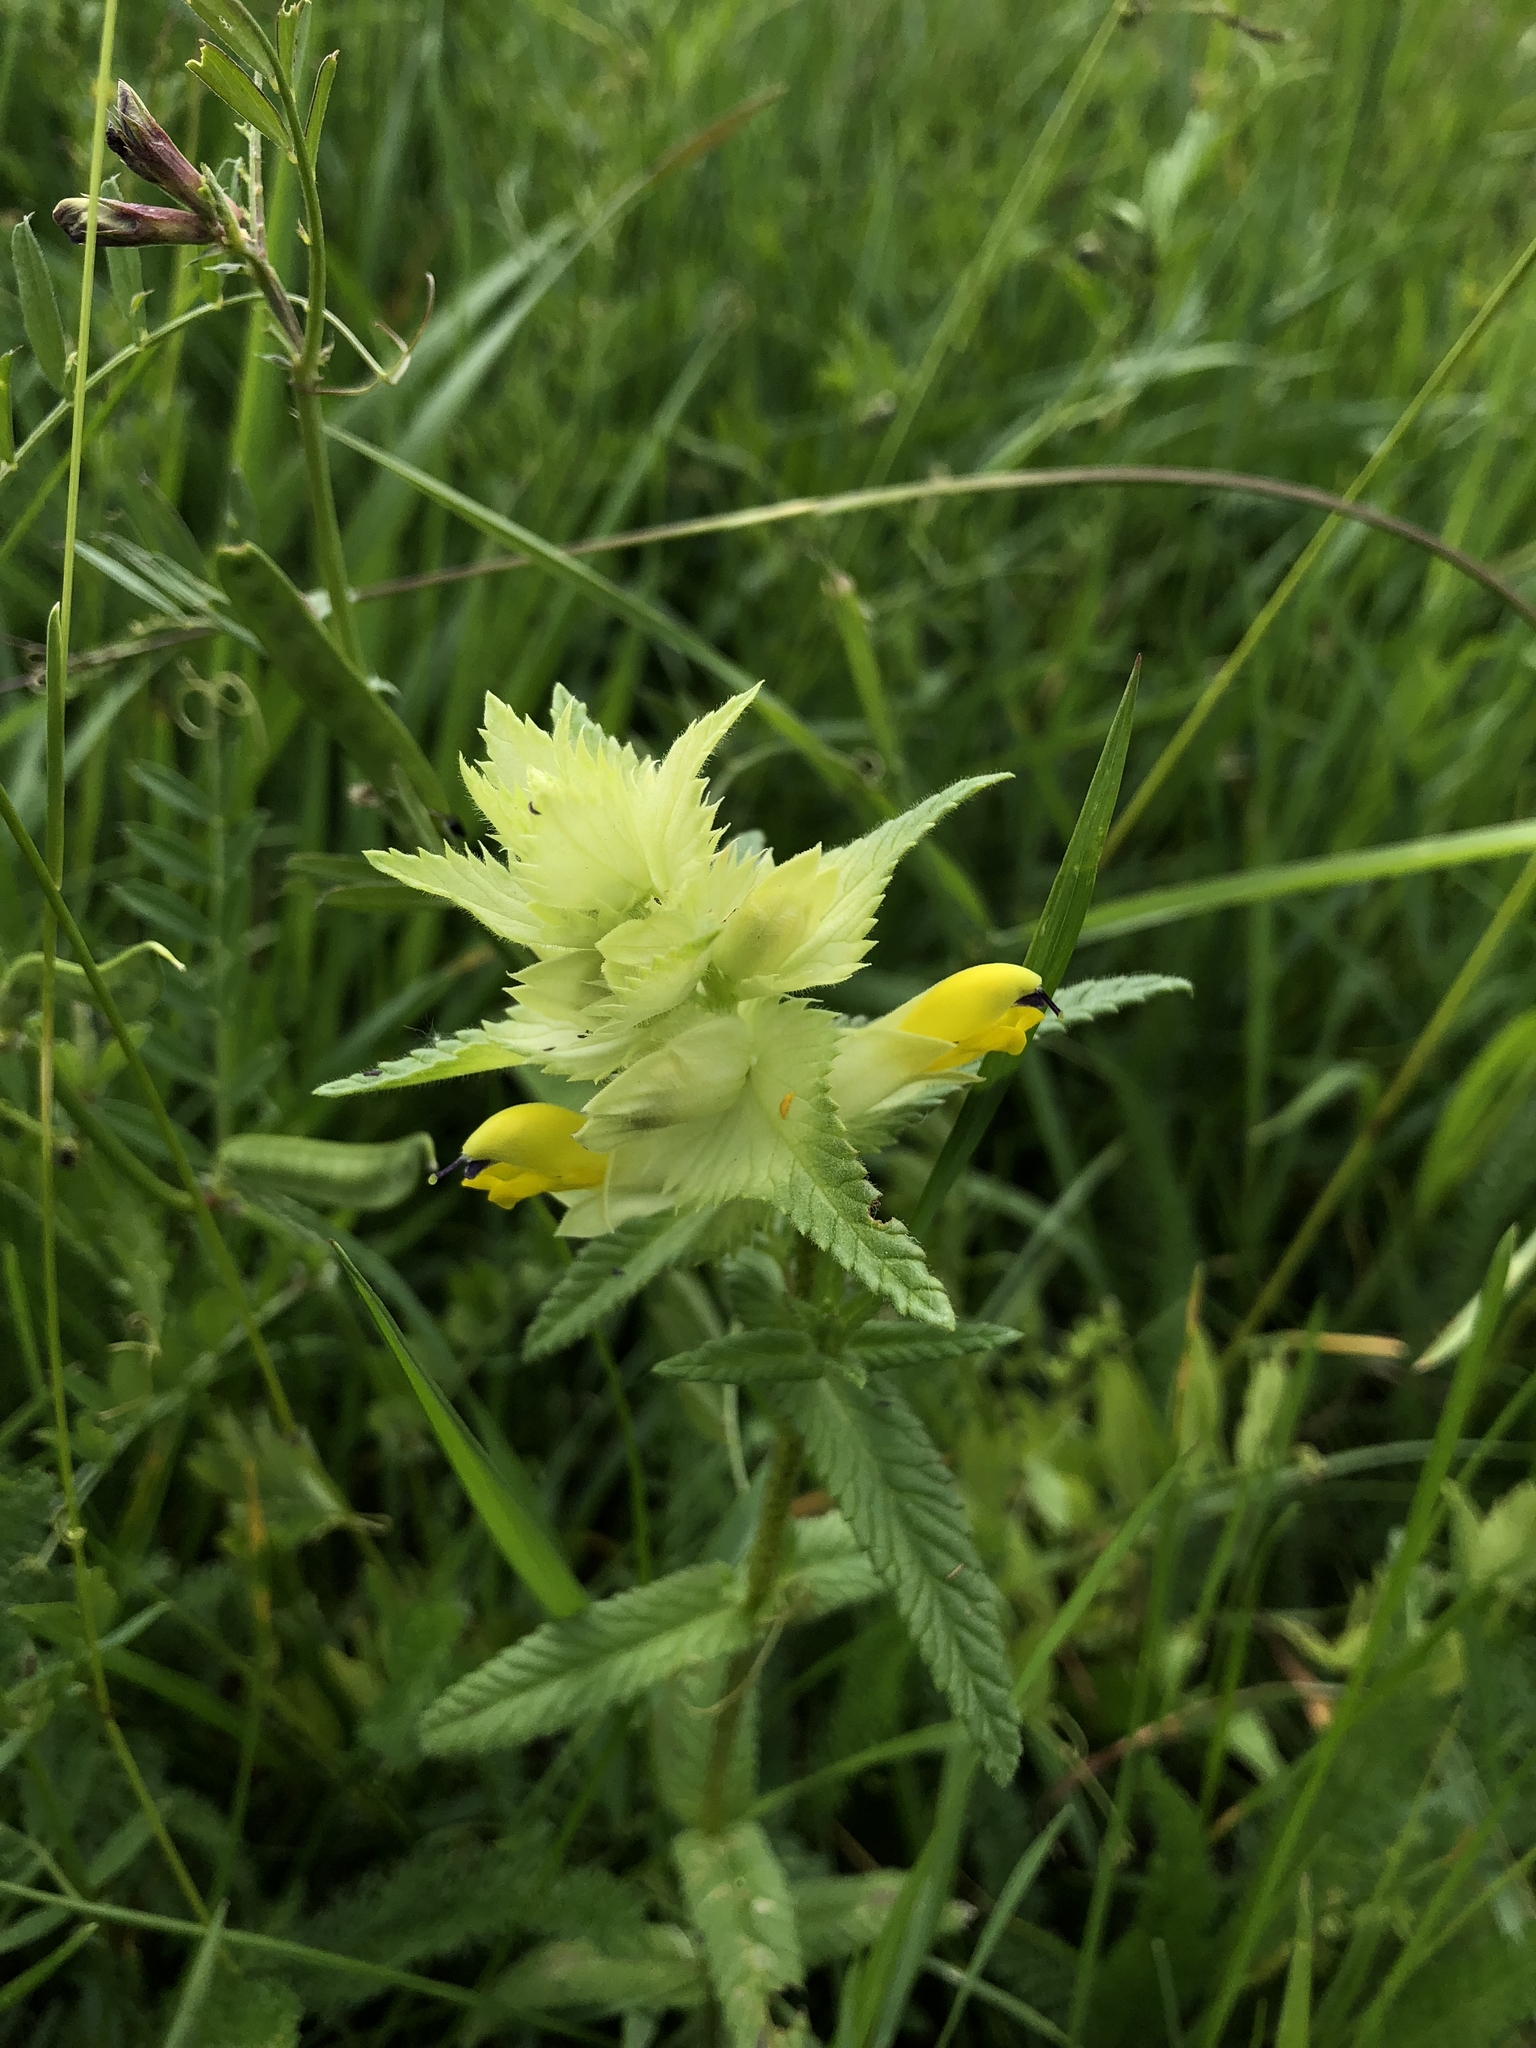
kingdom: Plantae
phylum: Tracheophyta
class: Magnoliopsida
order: Lamiales
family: Orobanchaceae
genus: Rhinanthus
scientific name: Rhinanthus serotinus
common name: Late-flowering yellow rattle
